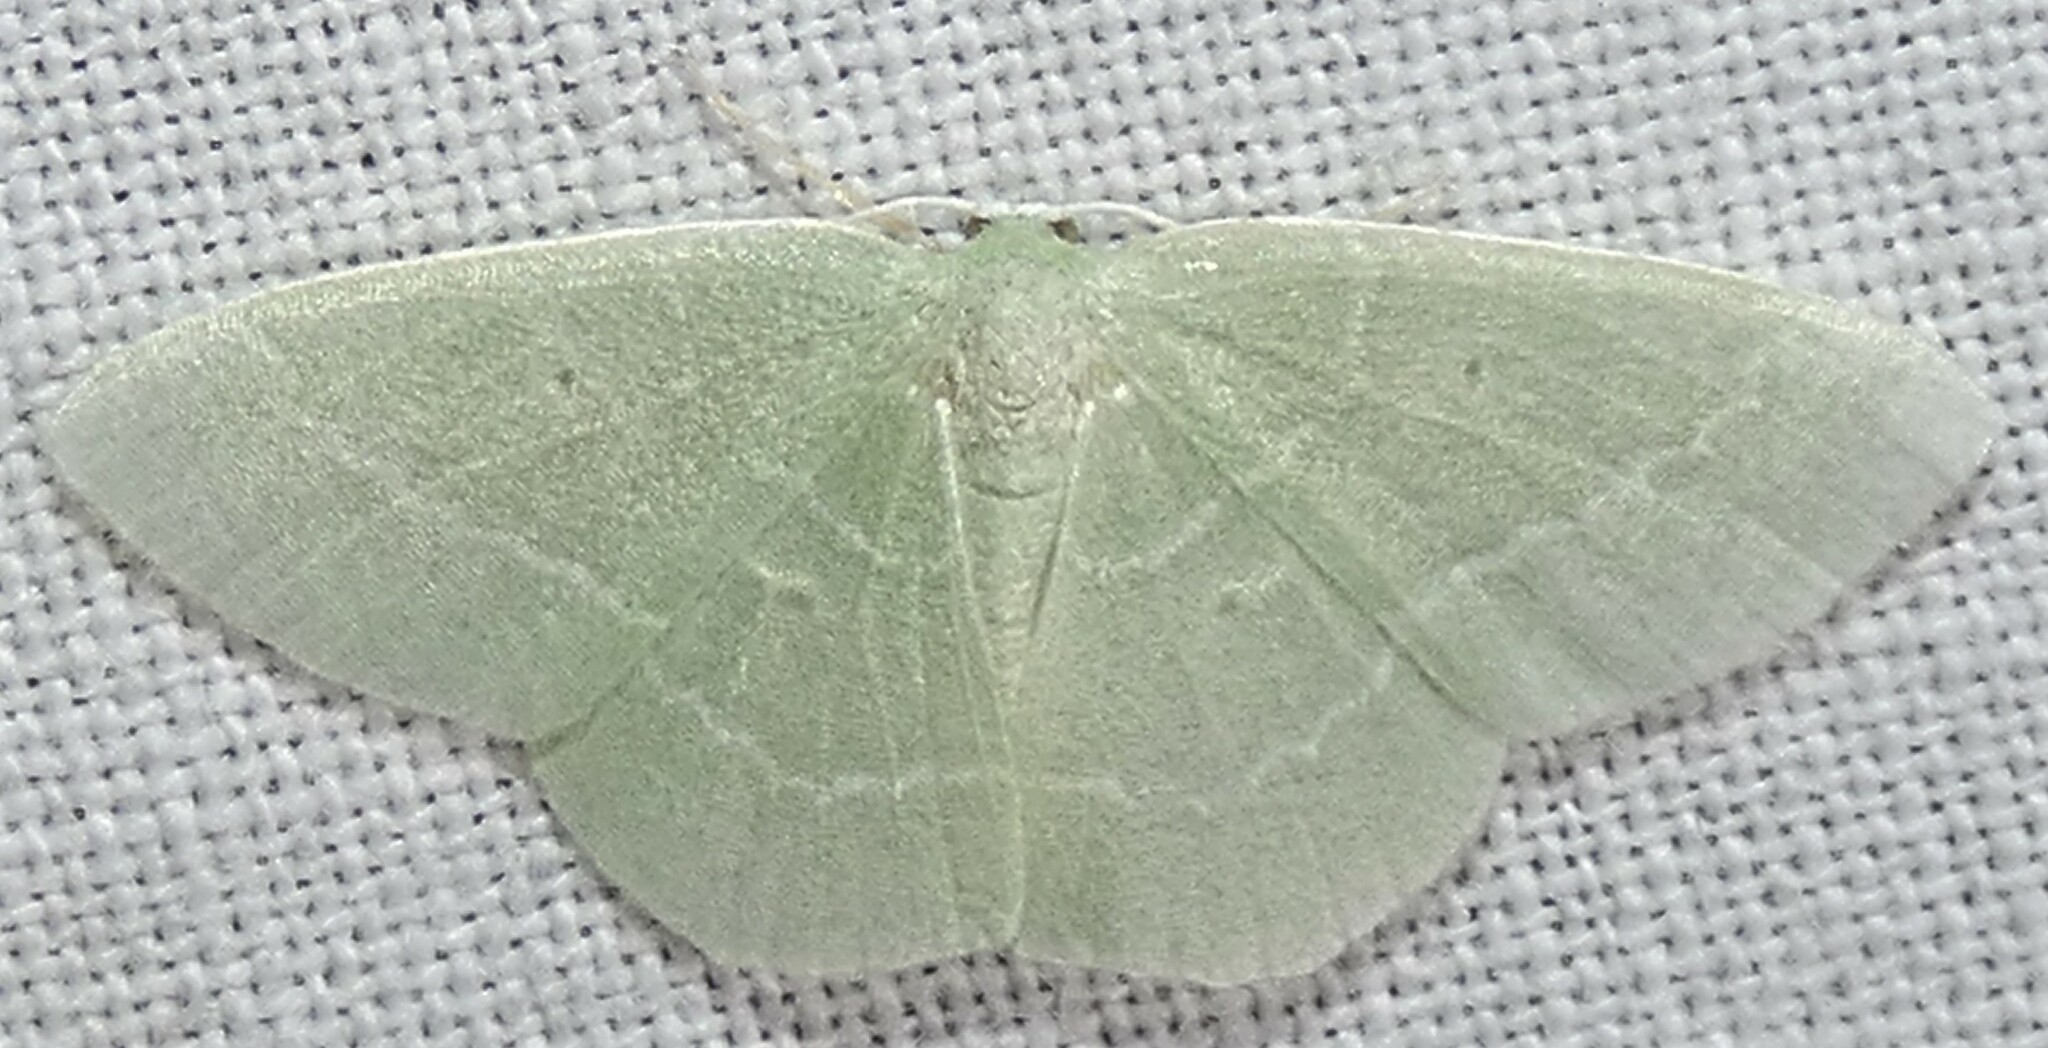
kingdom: Animalia
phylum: Arthropoda
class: Insecta
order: Lepidoptera
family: Geometridae
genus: Nemoria
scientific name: Nemoria elfa
